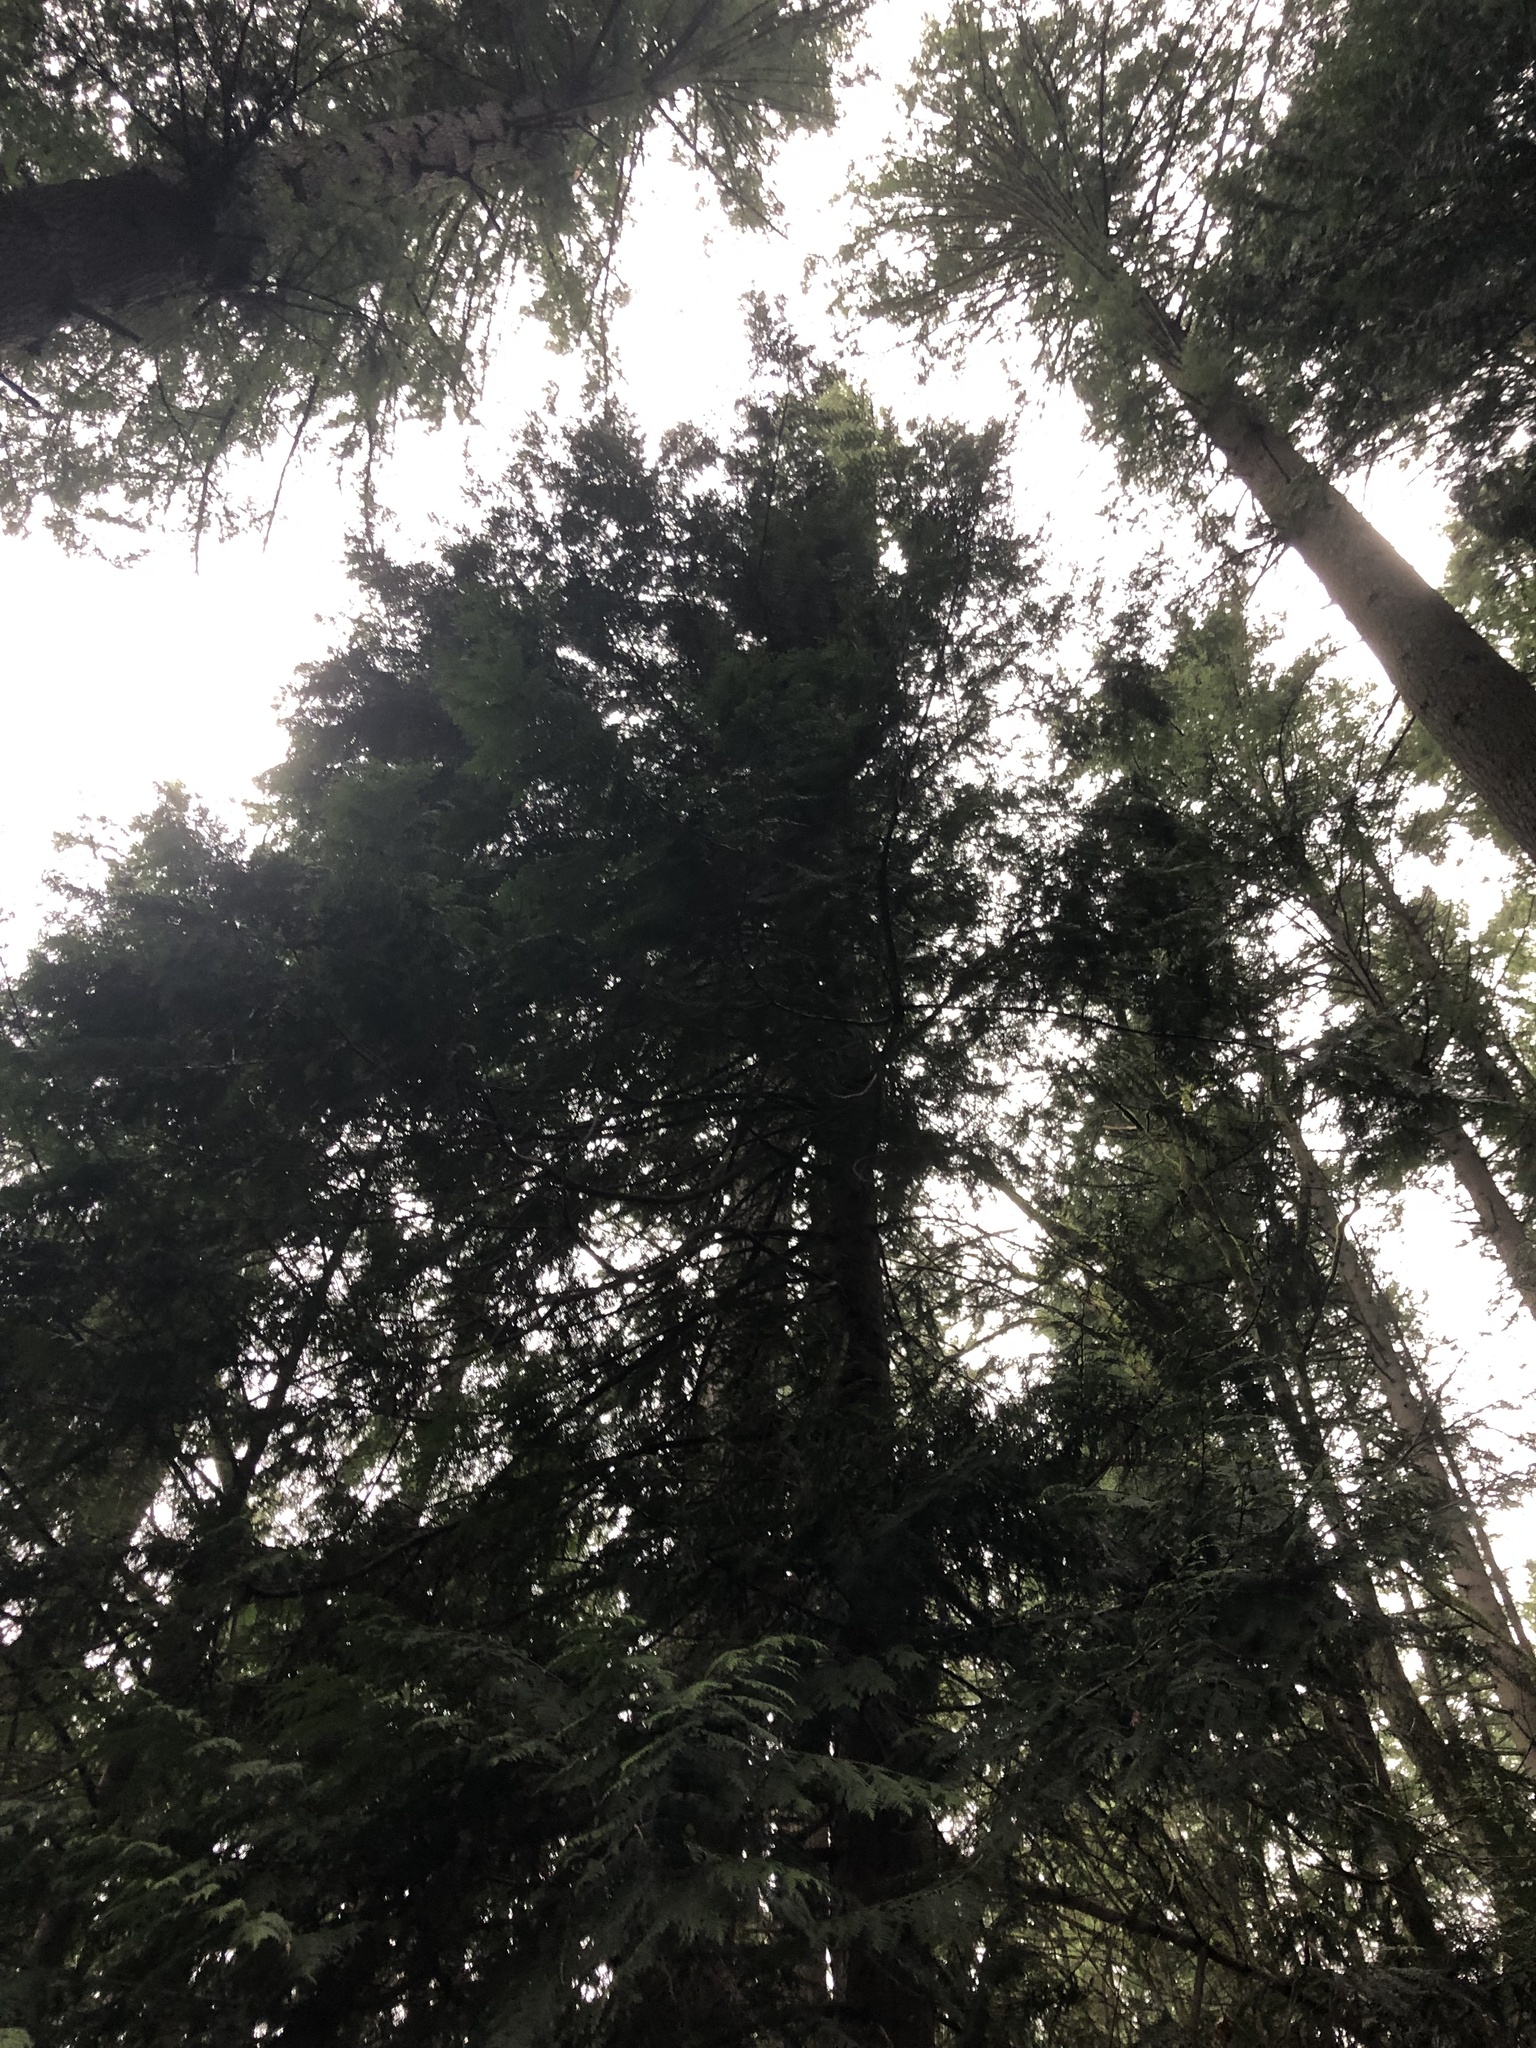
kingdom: Plantae
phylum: Tracheophyta
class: Pinopsida
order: Pinales
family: Cupressaceae
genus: Thuja
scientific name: Thuja plicata
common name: Western red-cedar
